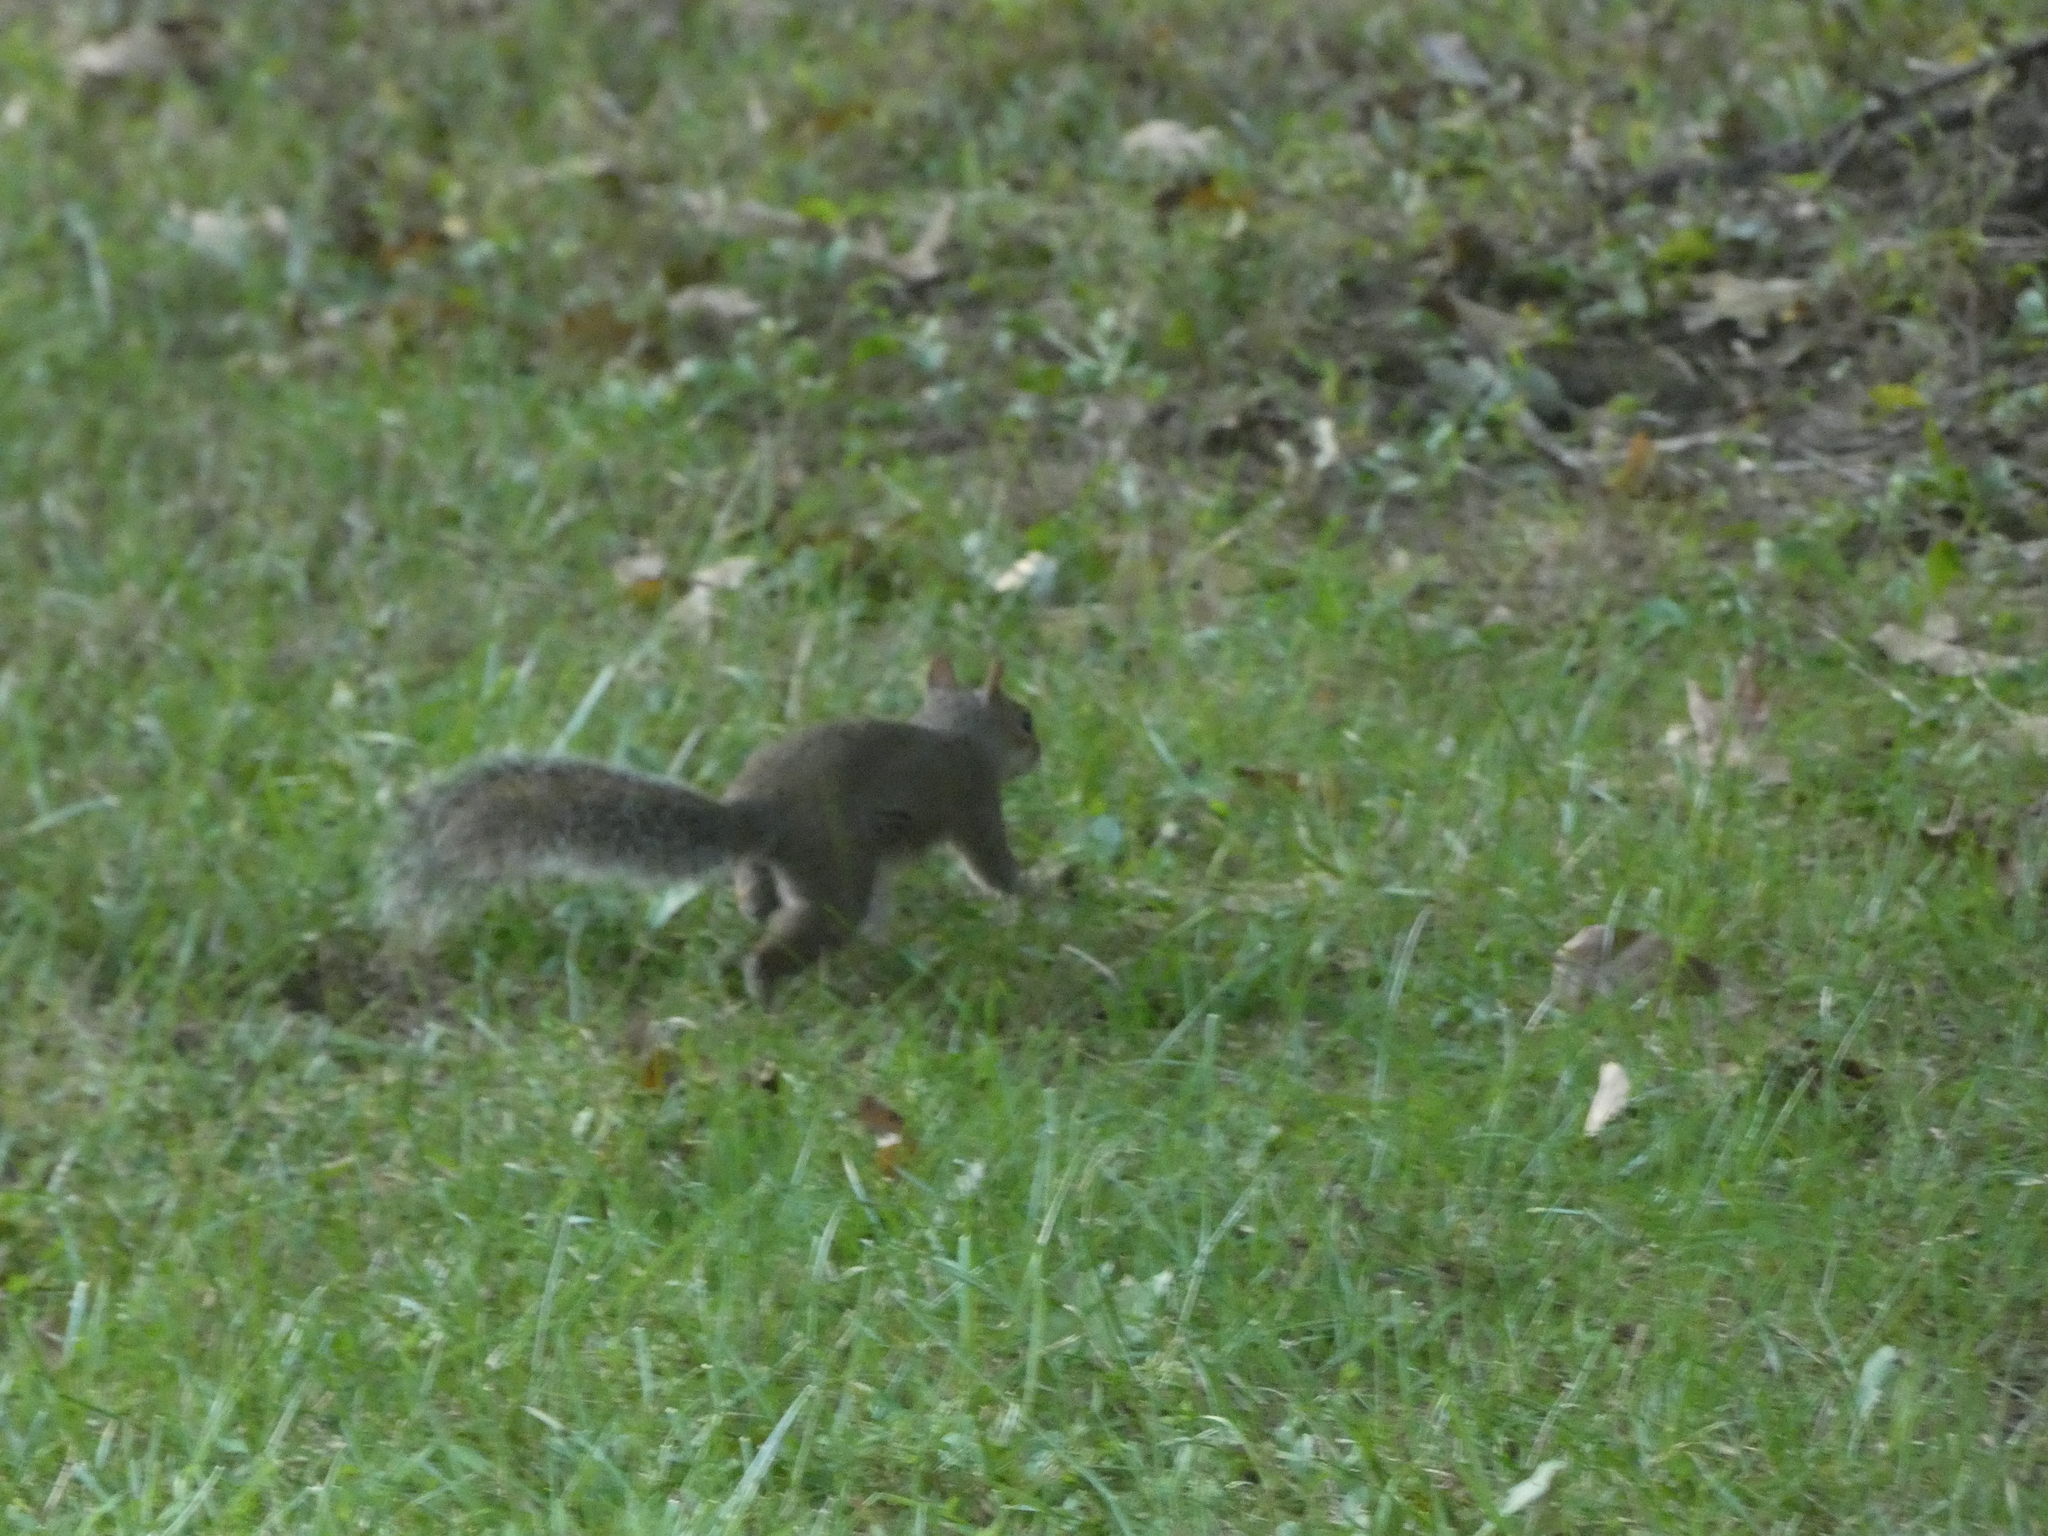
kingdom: Animalia
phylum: Chordata
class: Mammalia
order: Rodentia
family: Sciuridae
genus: Sciurus
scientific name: Sciurus carolinensis
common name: Eastern gray squirrel
